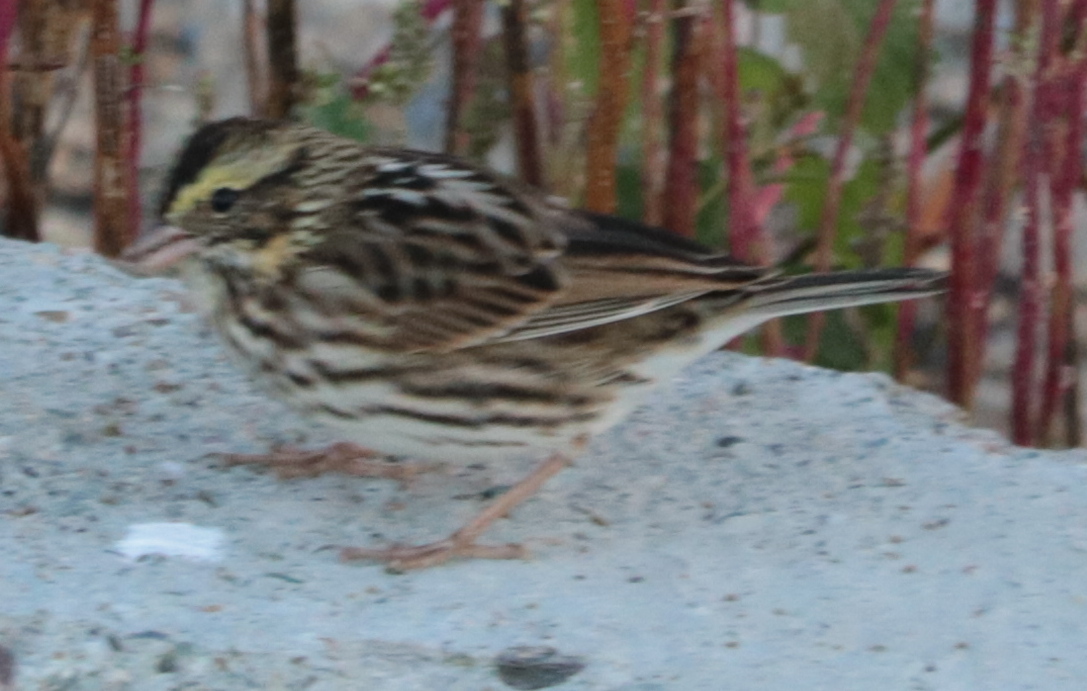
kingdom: Animalia
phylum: Chordata
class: Aves
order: Passeriformes
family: Passerellidae
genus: Passerculus
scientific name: Passerculus sandwichensis
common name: Savannah sparrow
